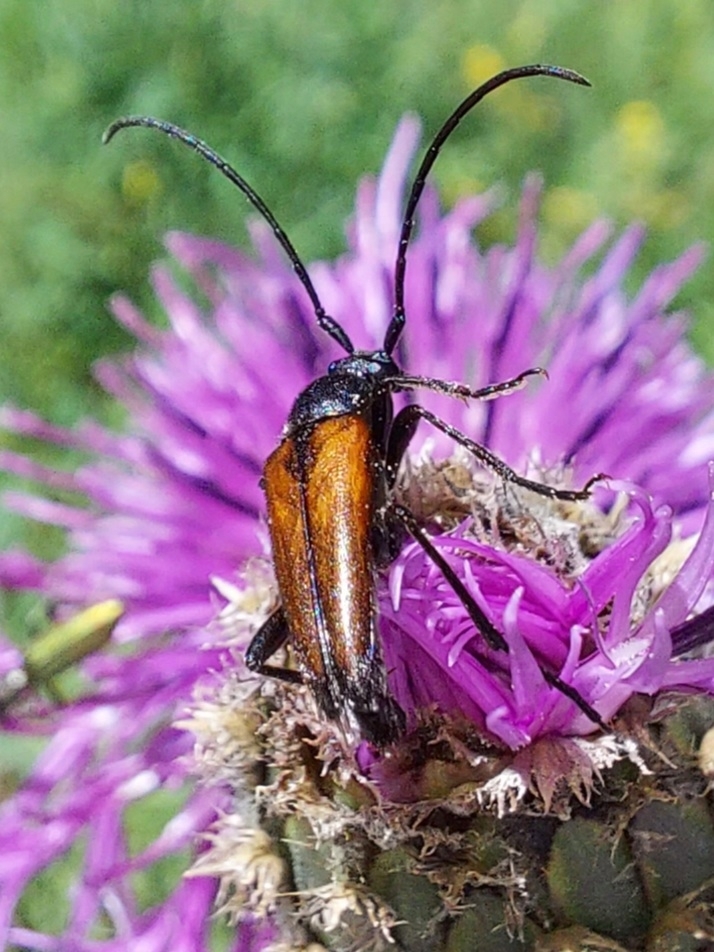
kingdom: Animalia
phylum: Arthropoda
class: Insecta
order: Coleoptera
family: Cerambycidae
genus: Stenurella
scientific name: Stenurella melanura
